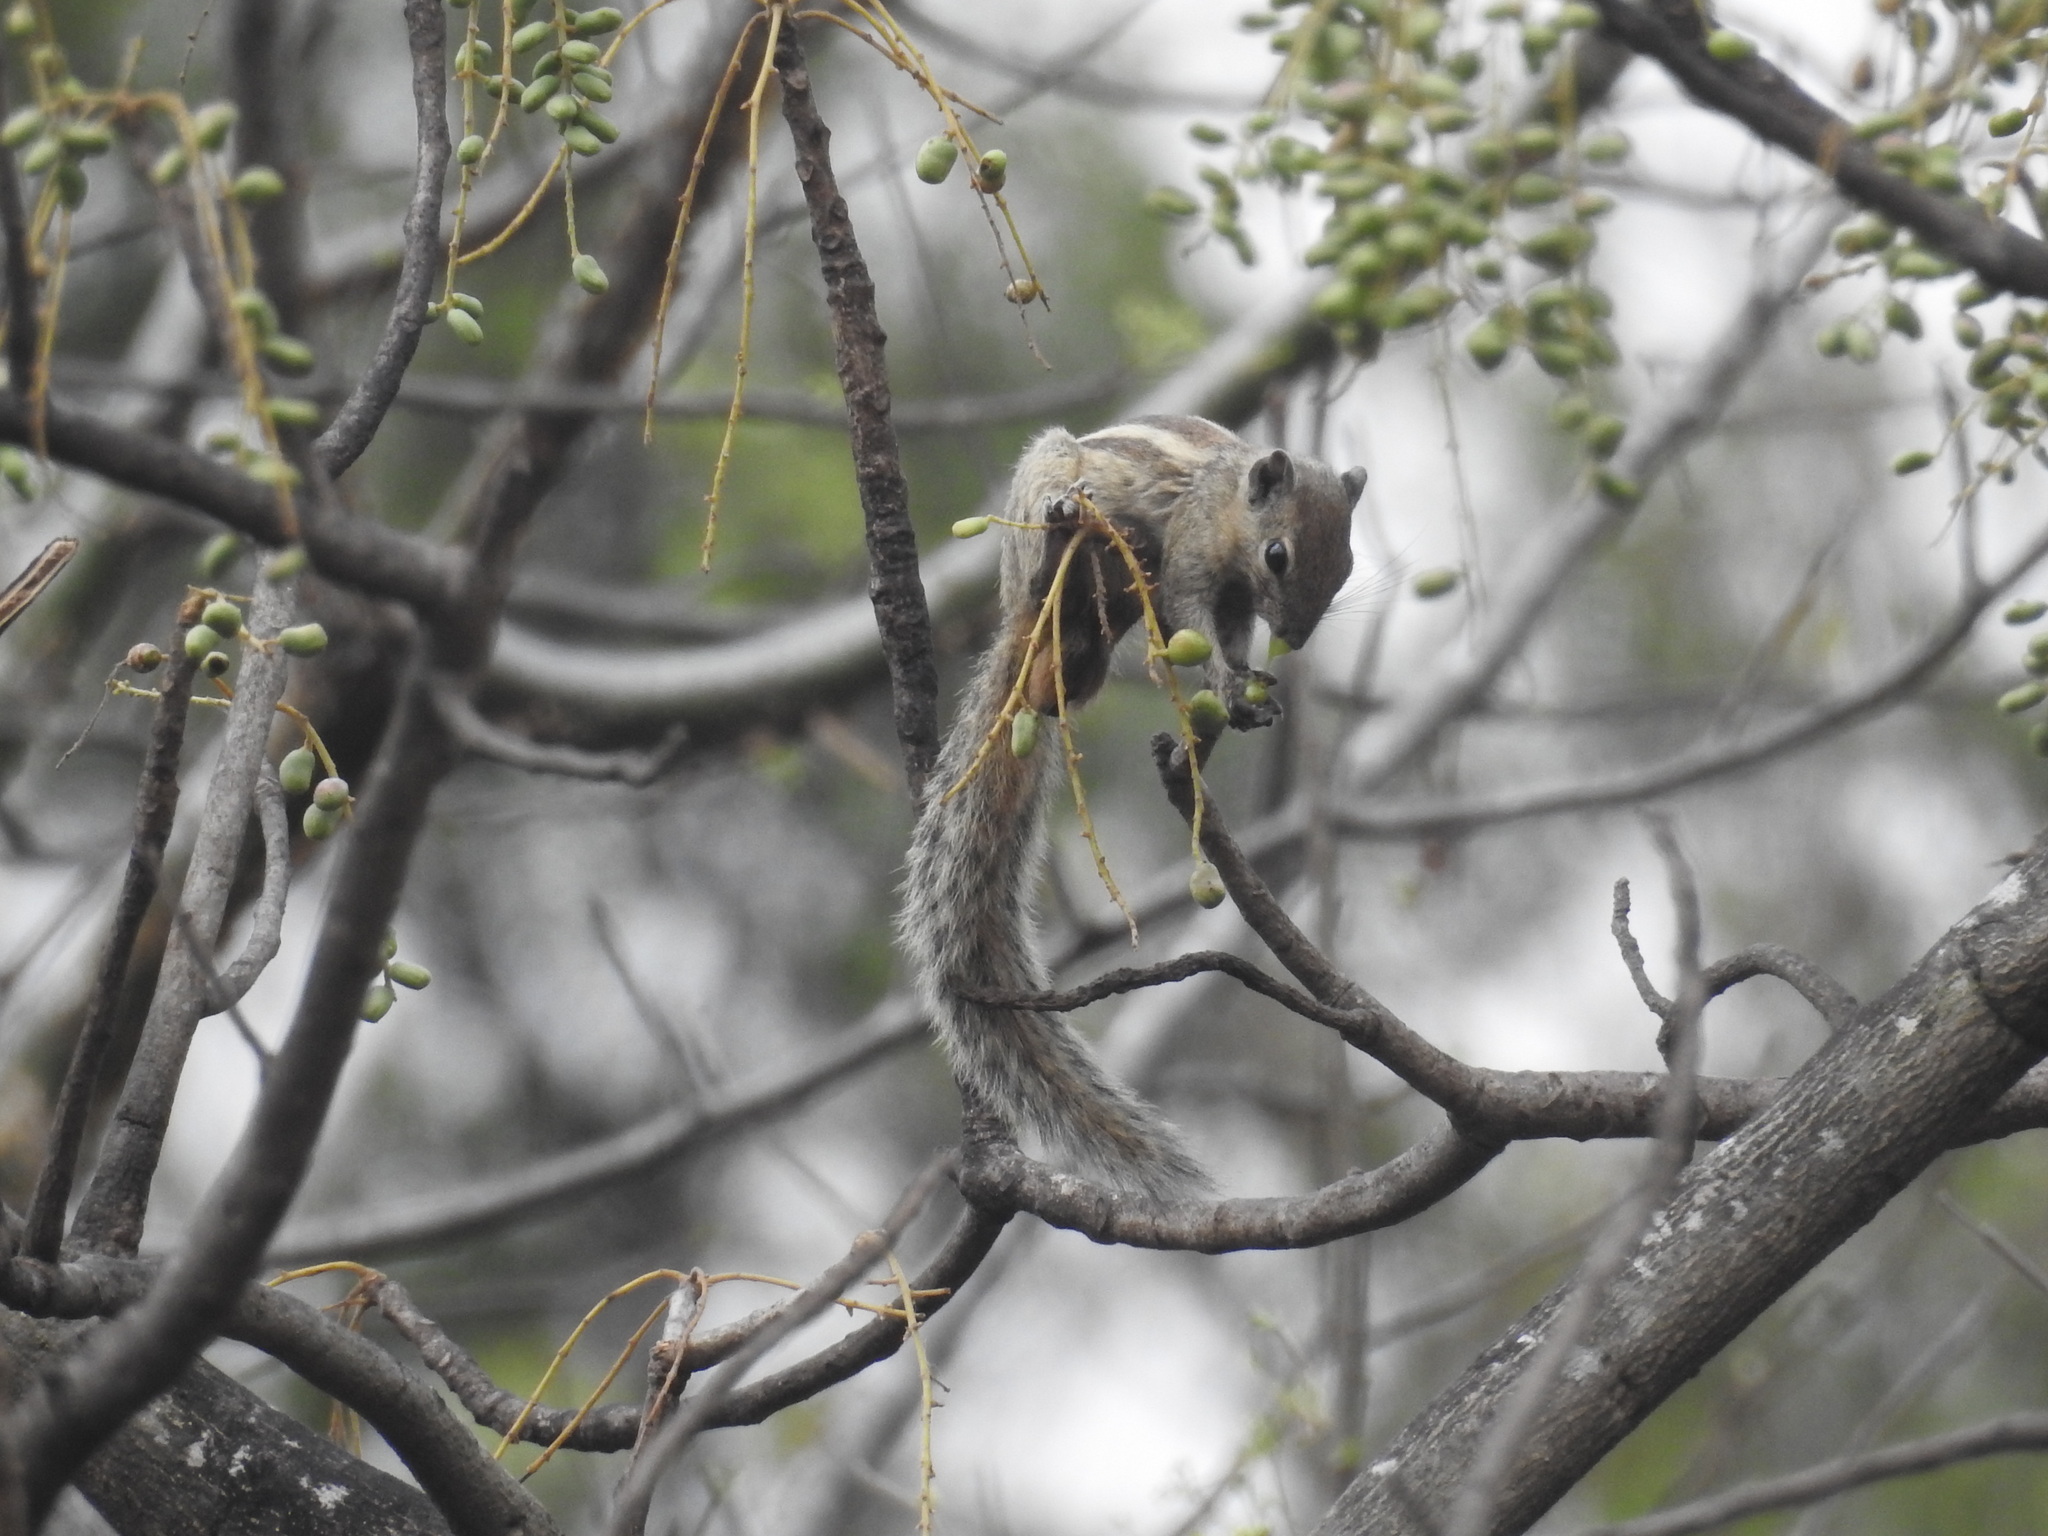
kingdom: Animalia
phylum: Chordata
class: Mammalia
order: Rodentia
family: Sciuridae
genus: Funambulus
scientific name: Funambulus palmarum
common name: Indian palm squirrel
